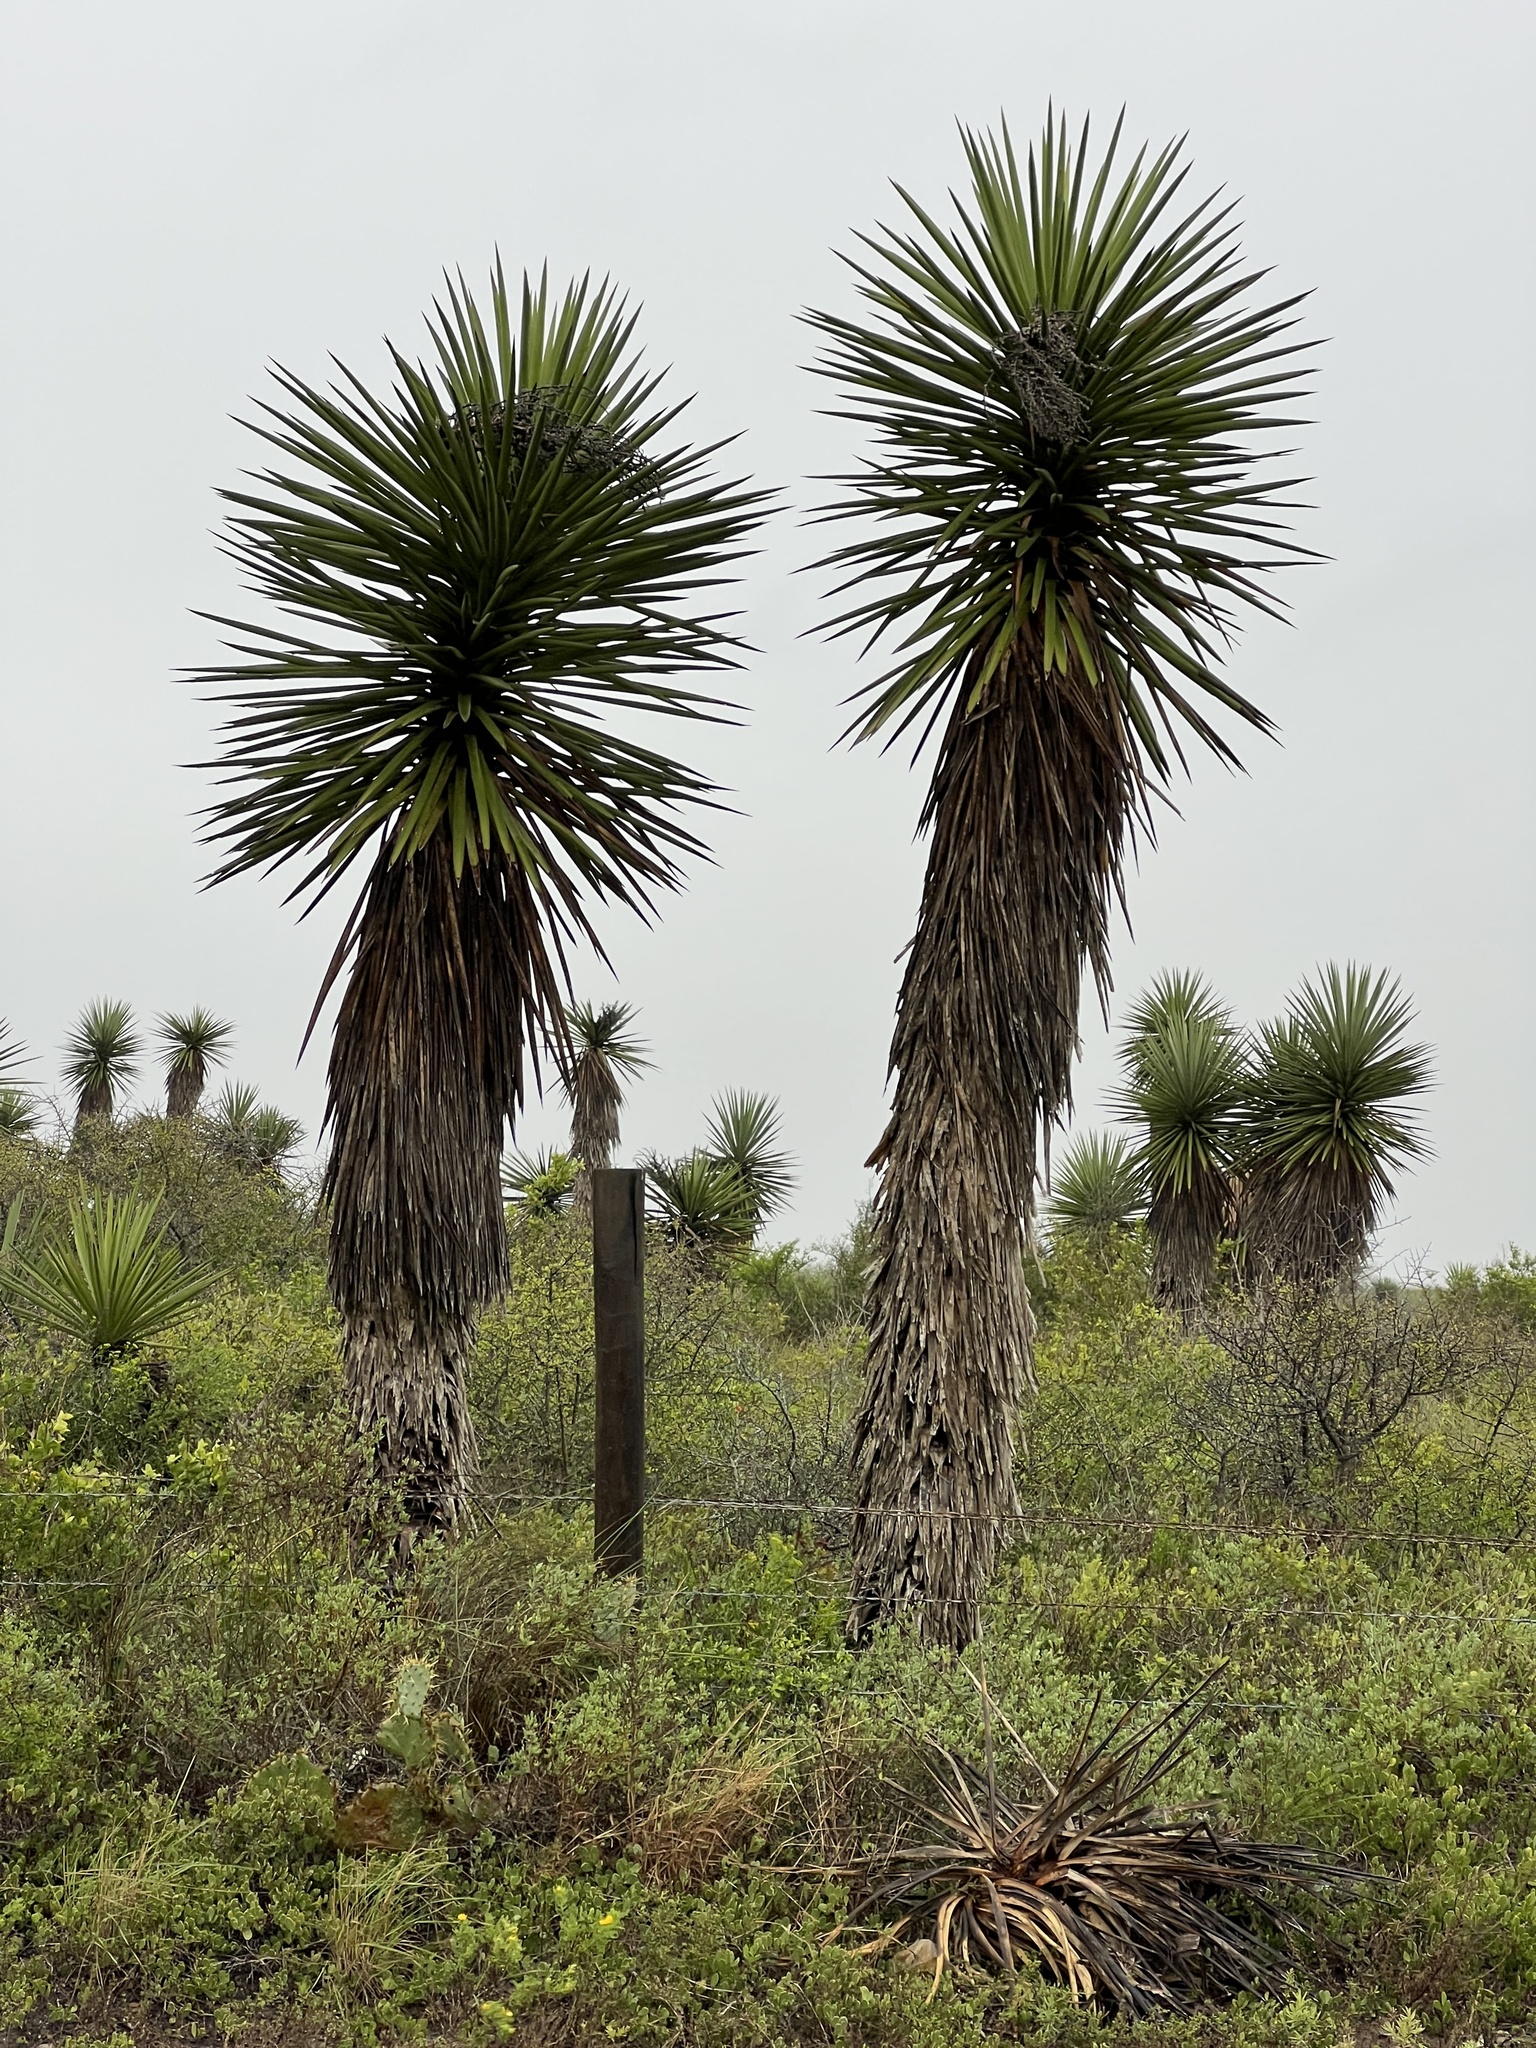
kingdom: Plantae
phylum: Tracheophyta
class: Liliopsida
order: Asparagales
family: Asparagaceae
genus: Yucca
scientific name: Yucca treculiana
